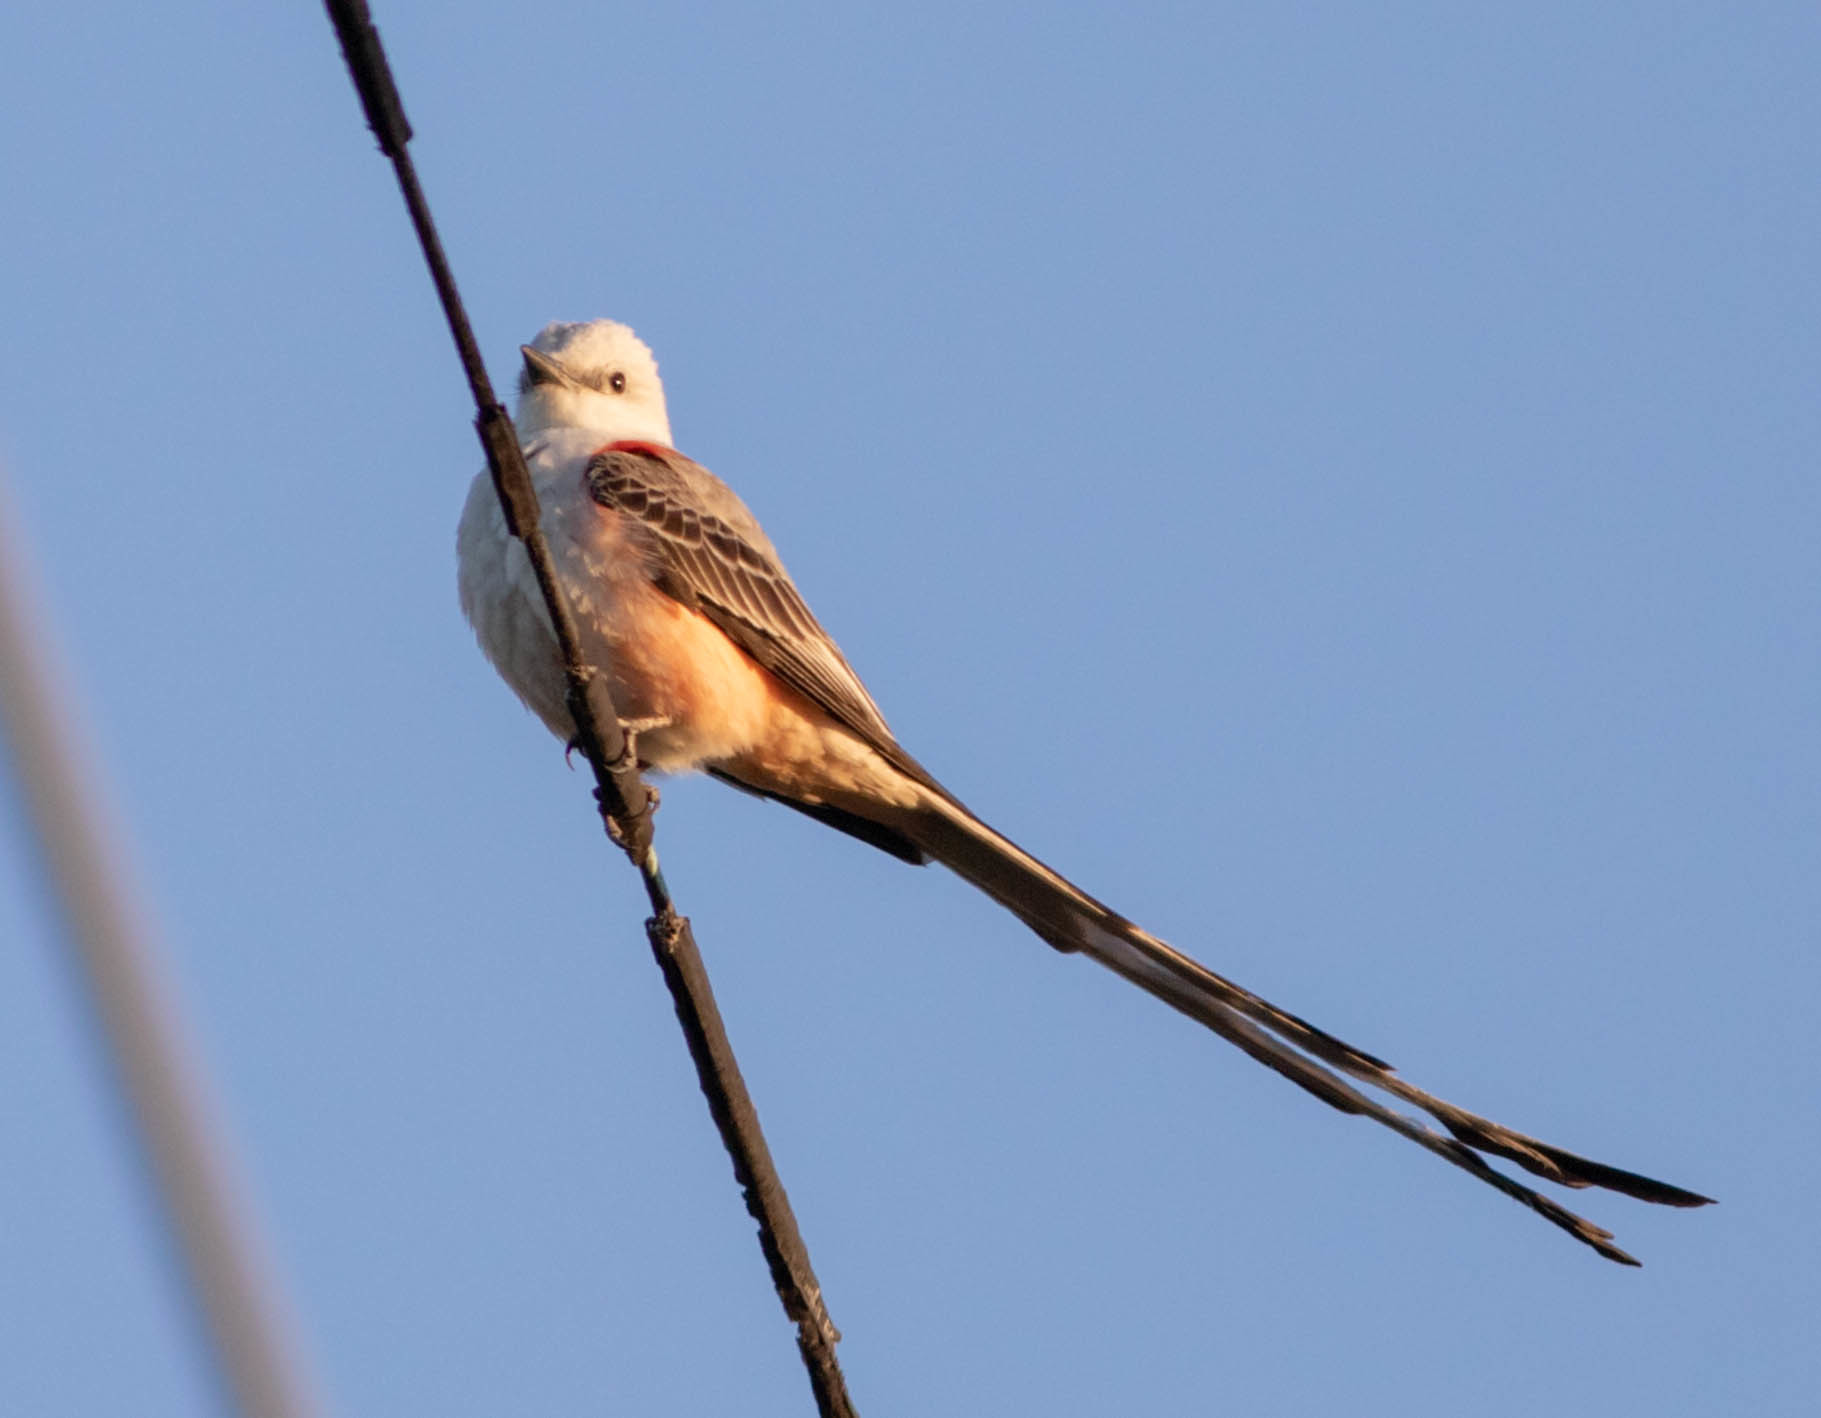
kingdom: Animalia
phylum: Chordata
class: Aves
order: Passeriformes
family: Tyrannidae
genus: Tyrannus
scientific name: Tyrannus forficatus
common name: Scissor-tailed flycatcher
